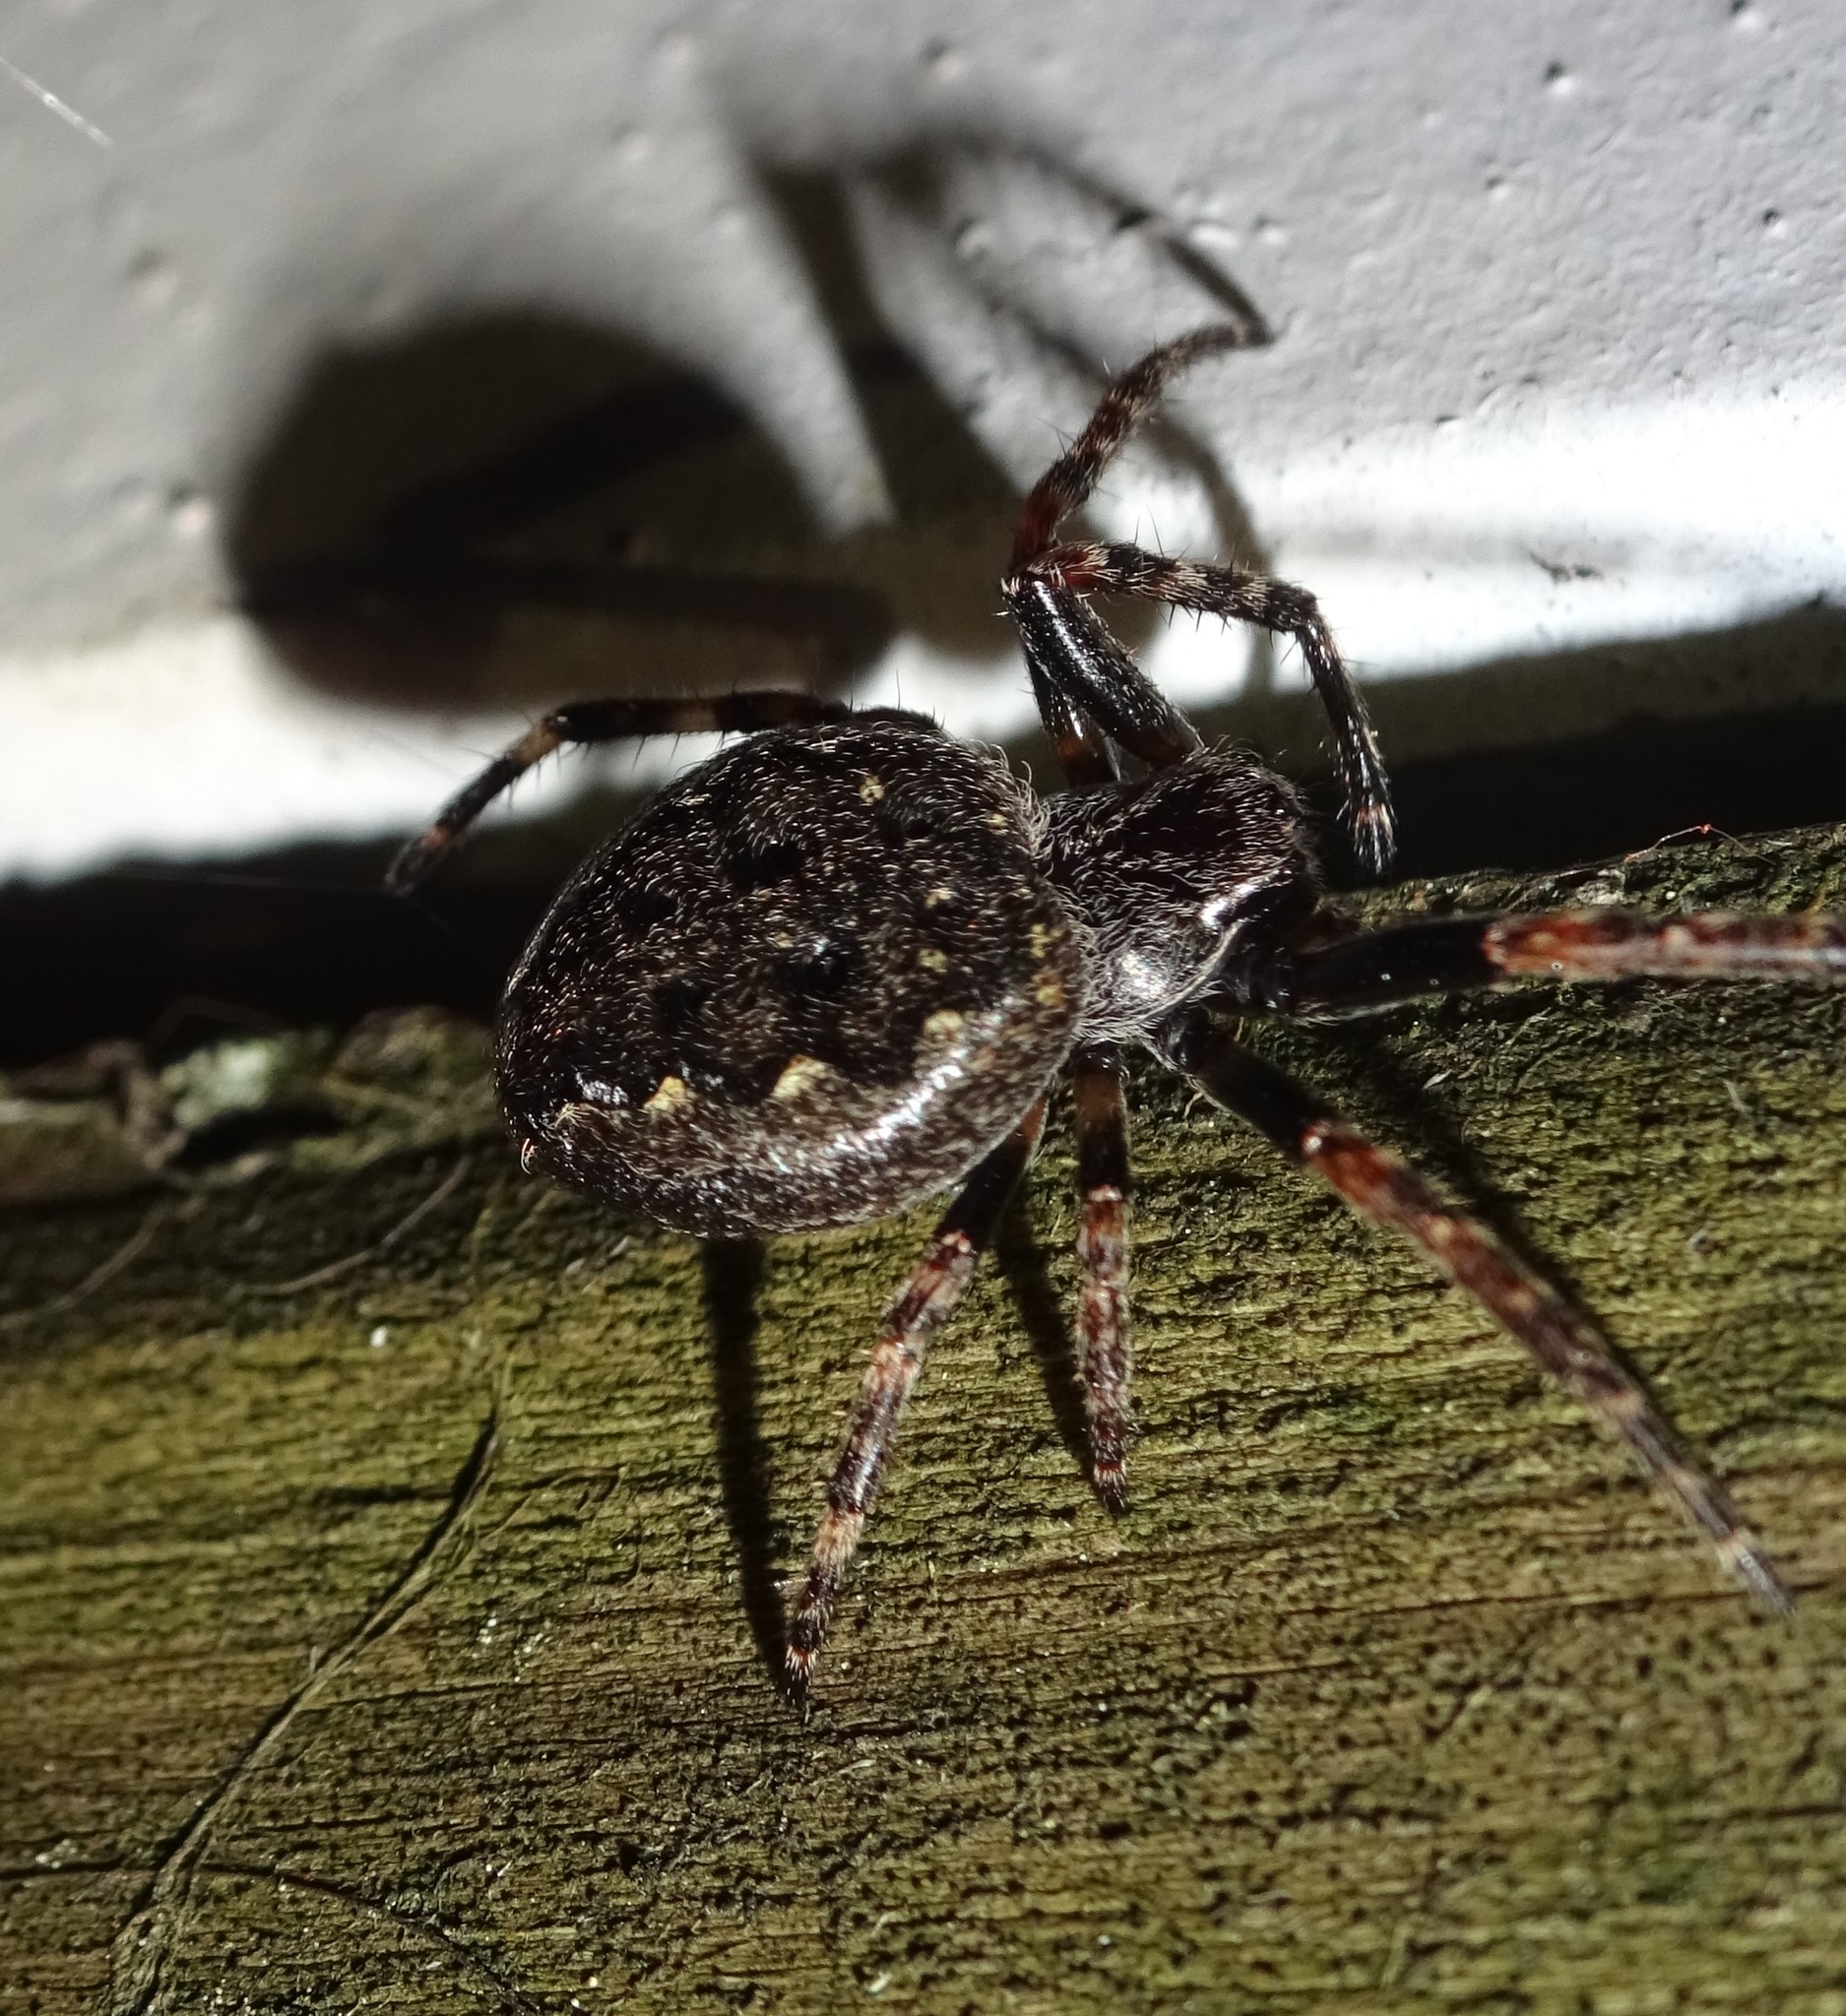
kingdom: Animalia
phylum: Arthropoda
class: Arachnida
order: Araneae
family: Araneidae
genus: Nuctenea
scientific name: Nuctenea umbratica
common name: Toad spider
